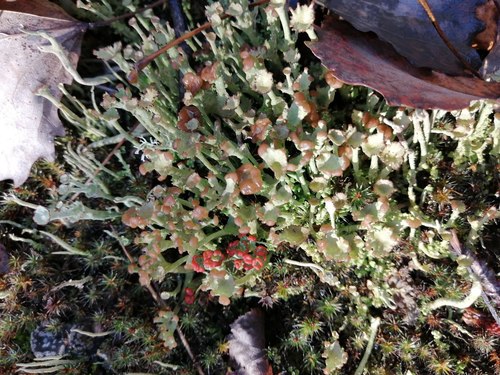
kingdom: Fungi
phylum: Ascomycota
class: Lecanoromycetes
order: Lecanorales
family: Cladoniaceae
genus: Cladonia
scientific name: Cladonia gracilis
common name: Smooth clad lichen
